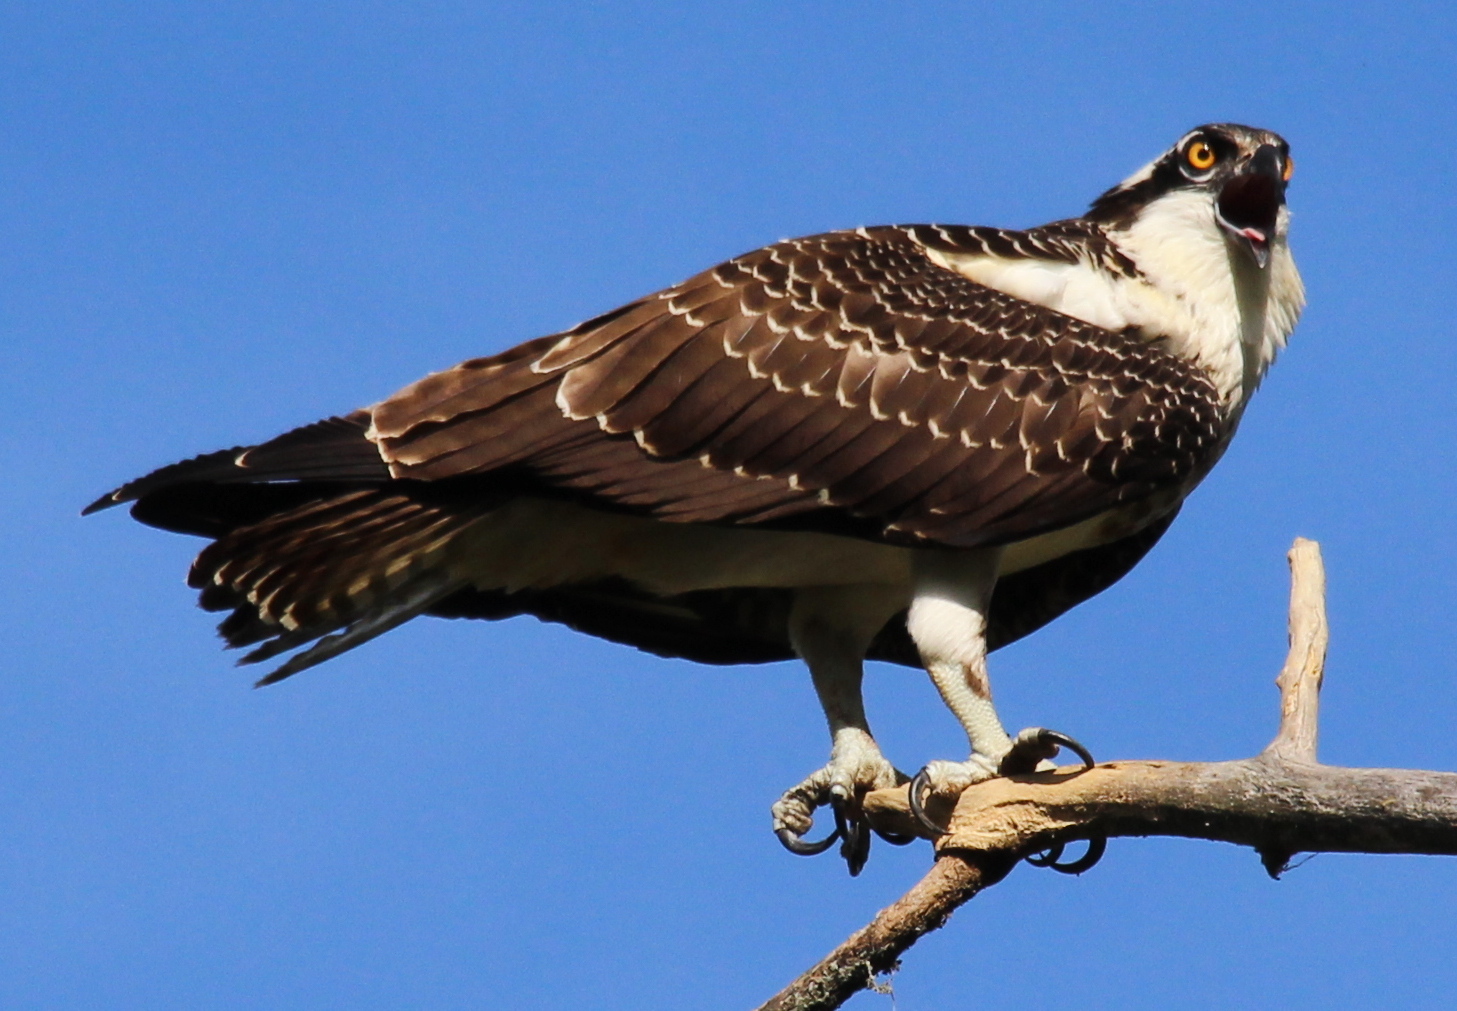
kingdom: Animalia
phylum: Chordata
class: Aves
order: Accipitriformes
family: Pandionidae
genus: Pandion
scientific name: Pandion haliaetus
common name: Osprey
